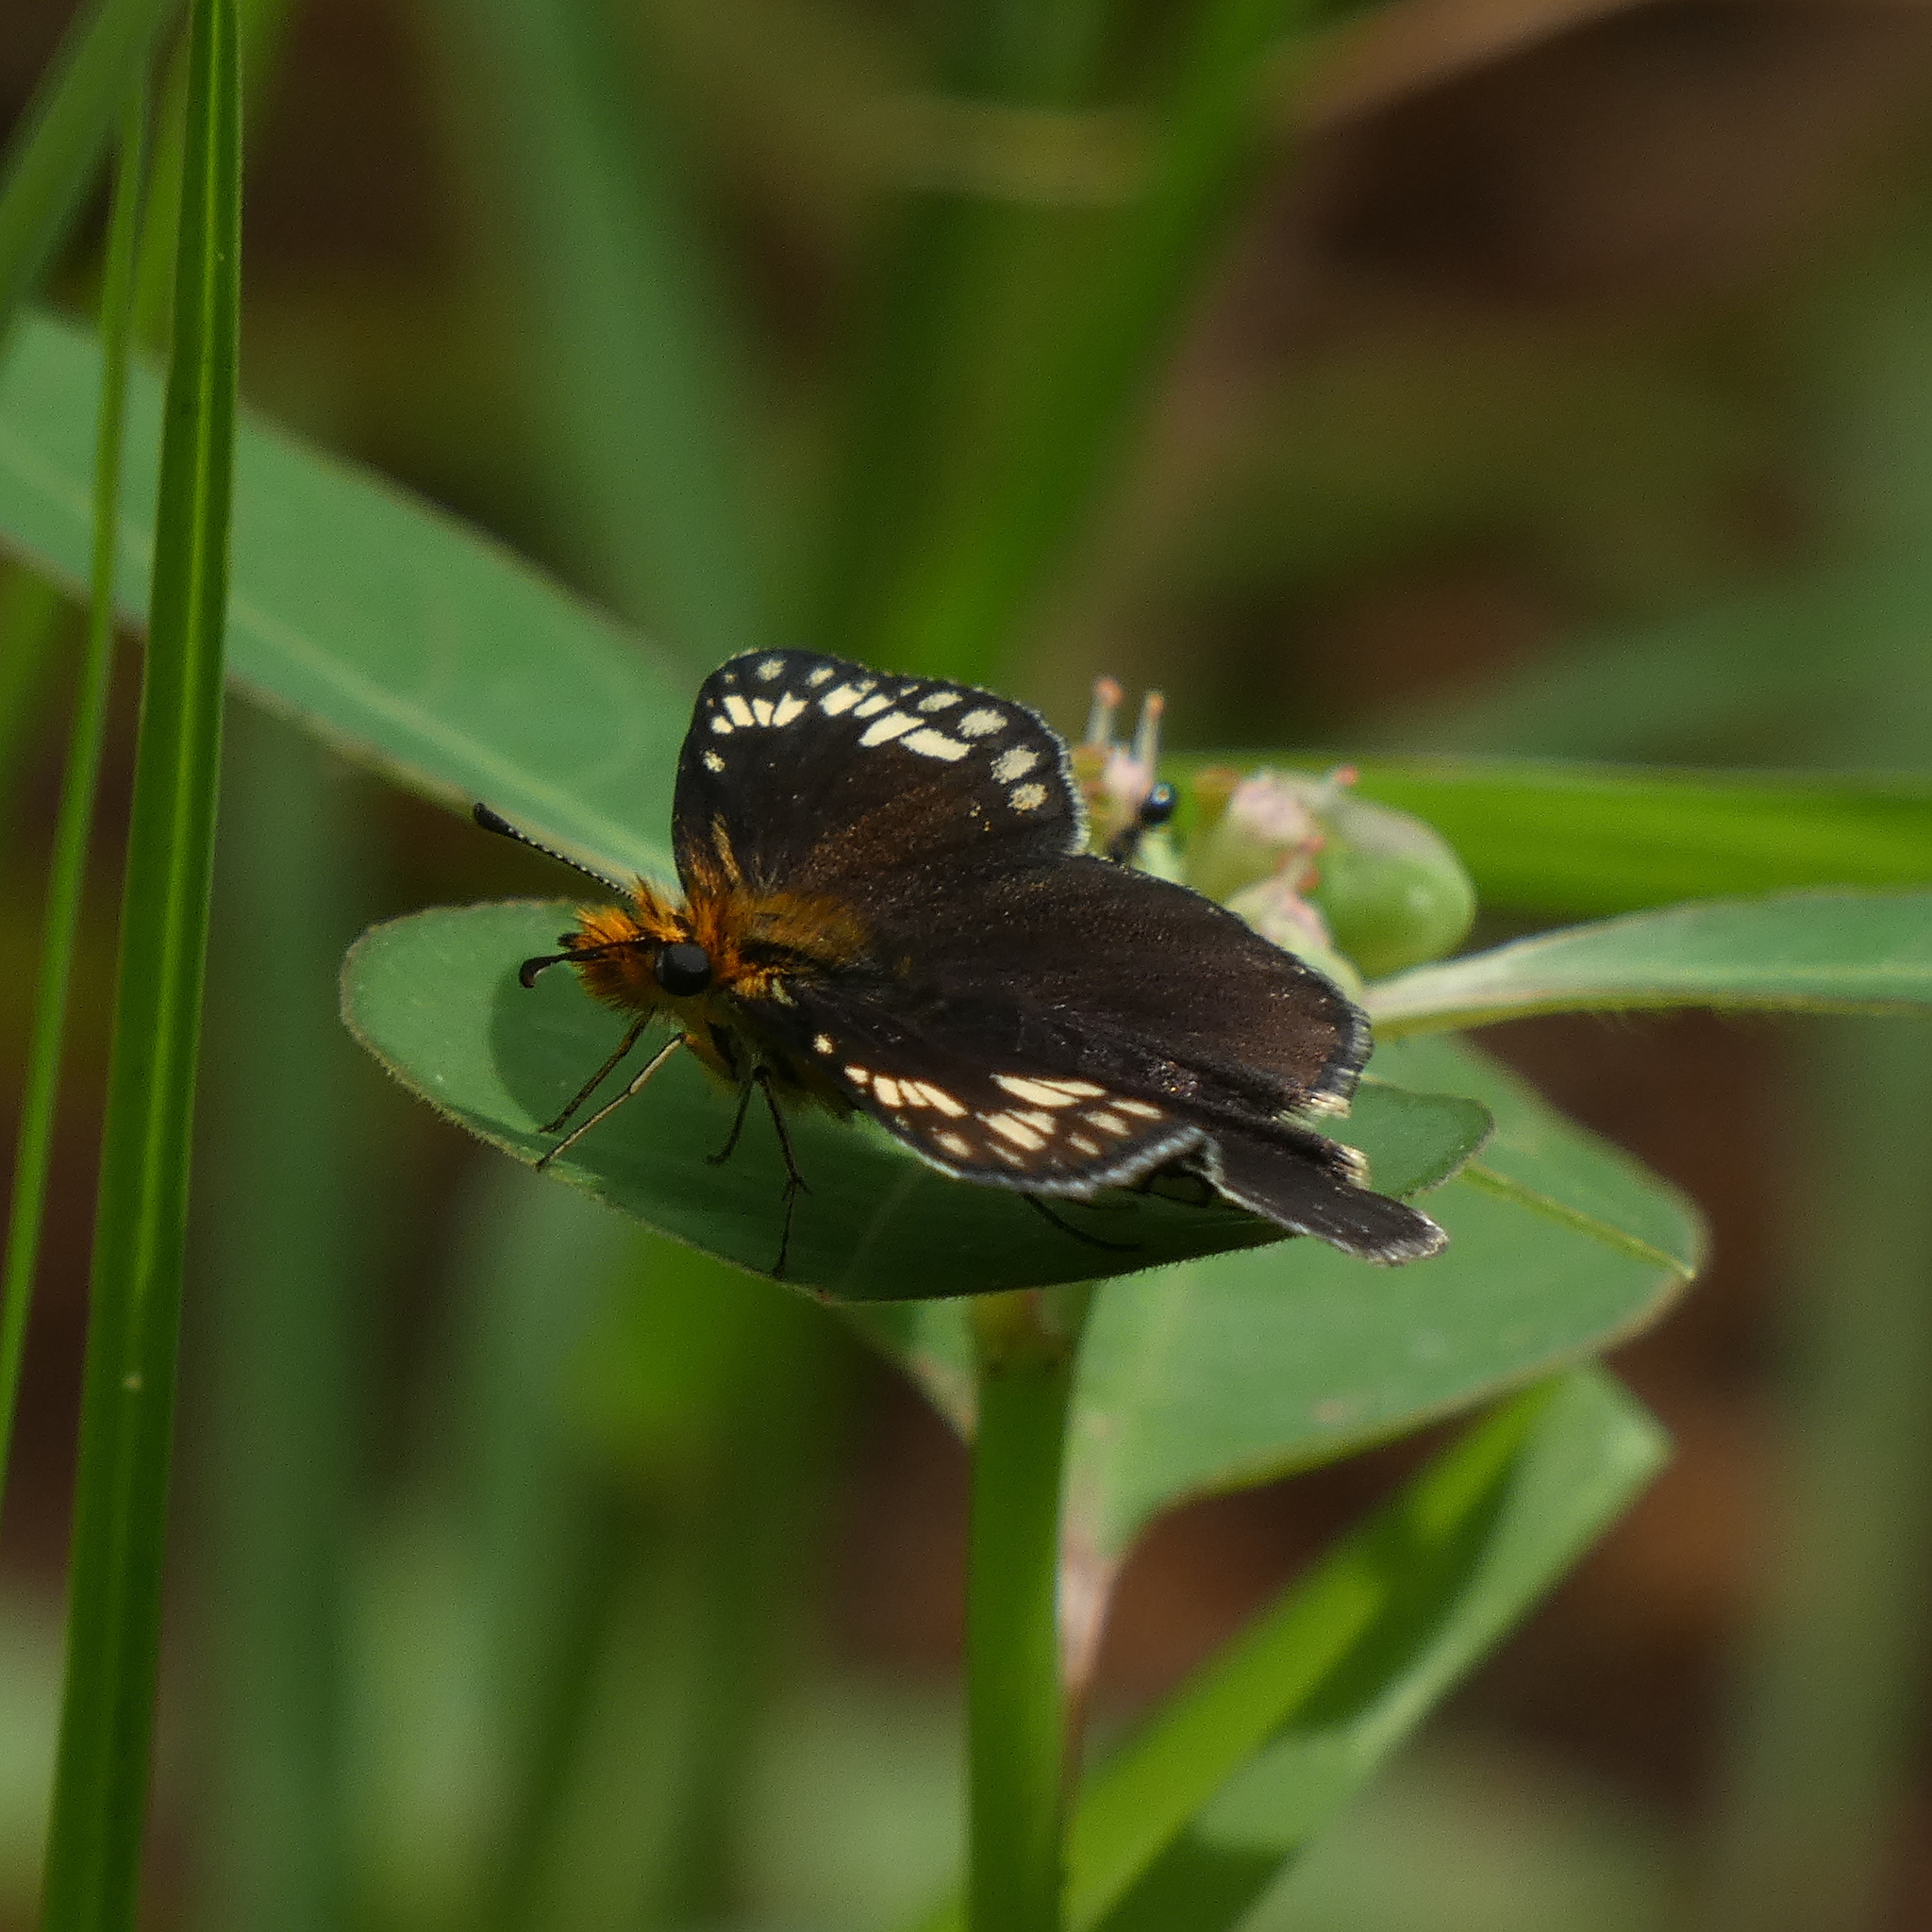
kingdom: Animalia
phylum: Arthropoda
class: Insecta
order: Lepidoptera
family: Hesperiidae
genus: Willema
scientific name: Willema willemi
